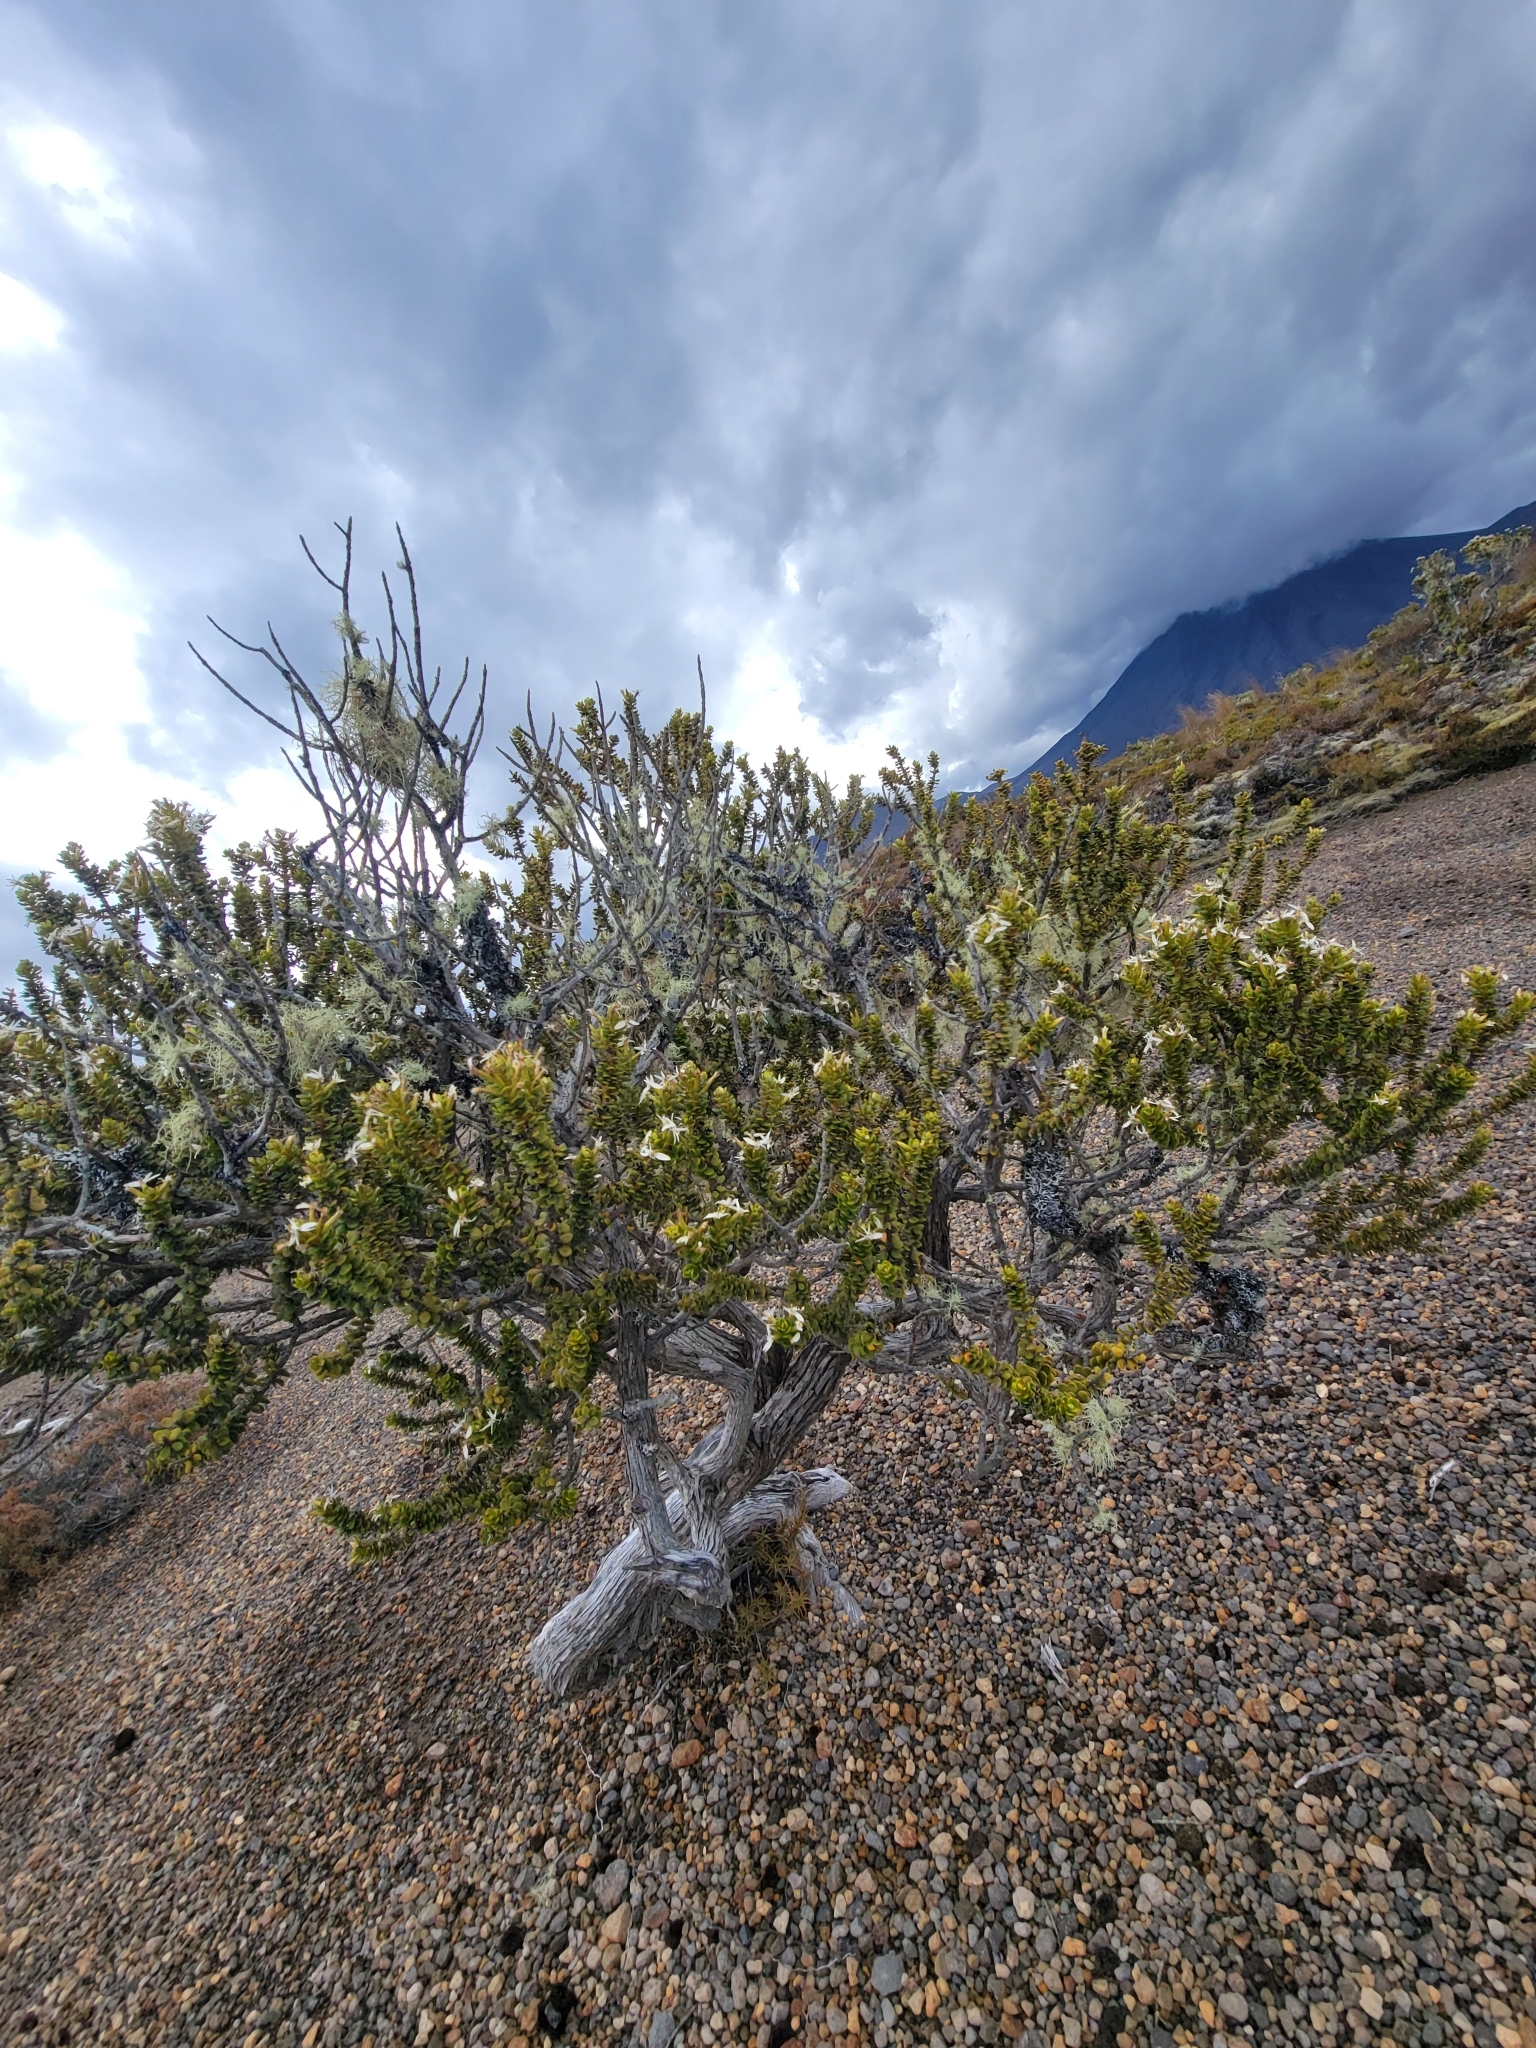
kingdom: Plantae
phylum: Tracheophyta
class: Magnoliopsida
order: Asterales
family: Asteraceae
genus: Olearia
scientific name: Olearia nummularifolia
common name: Sticky daisybush
